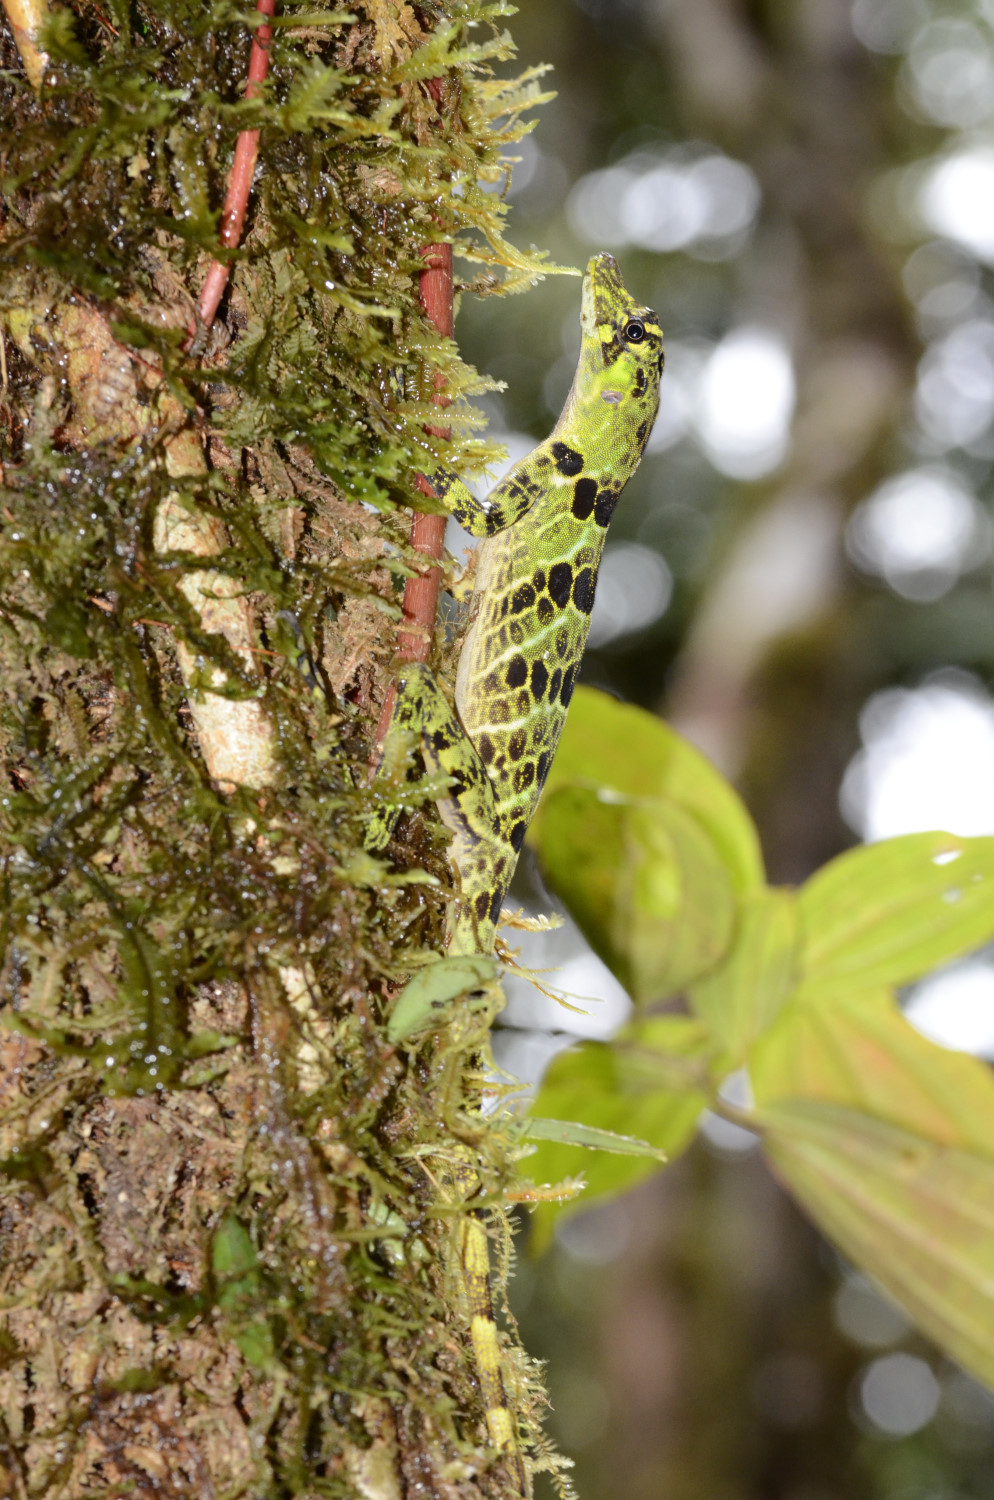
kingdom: Animalia
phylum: Chordata
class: Squamata
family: Dactyloidae
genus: Anolis
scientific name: Anolis princeps
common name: First anole
